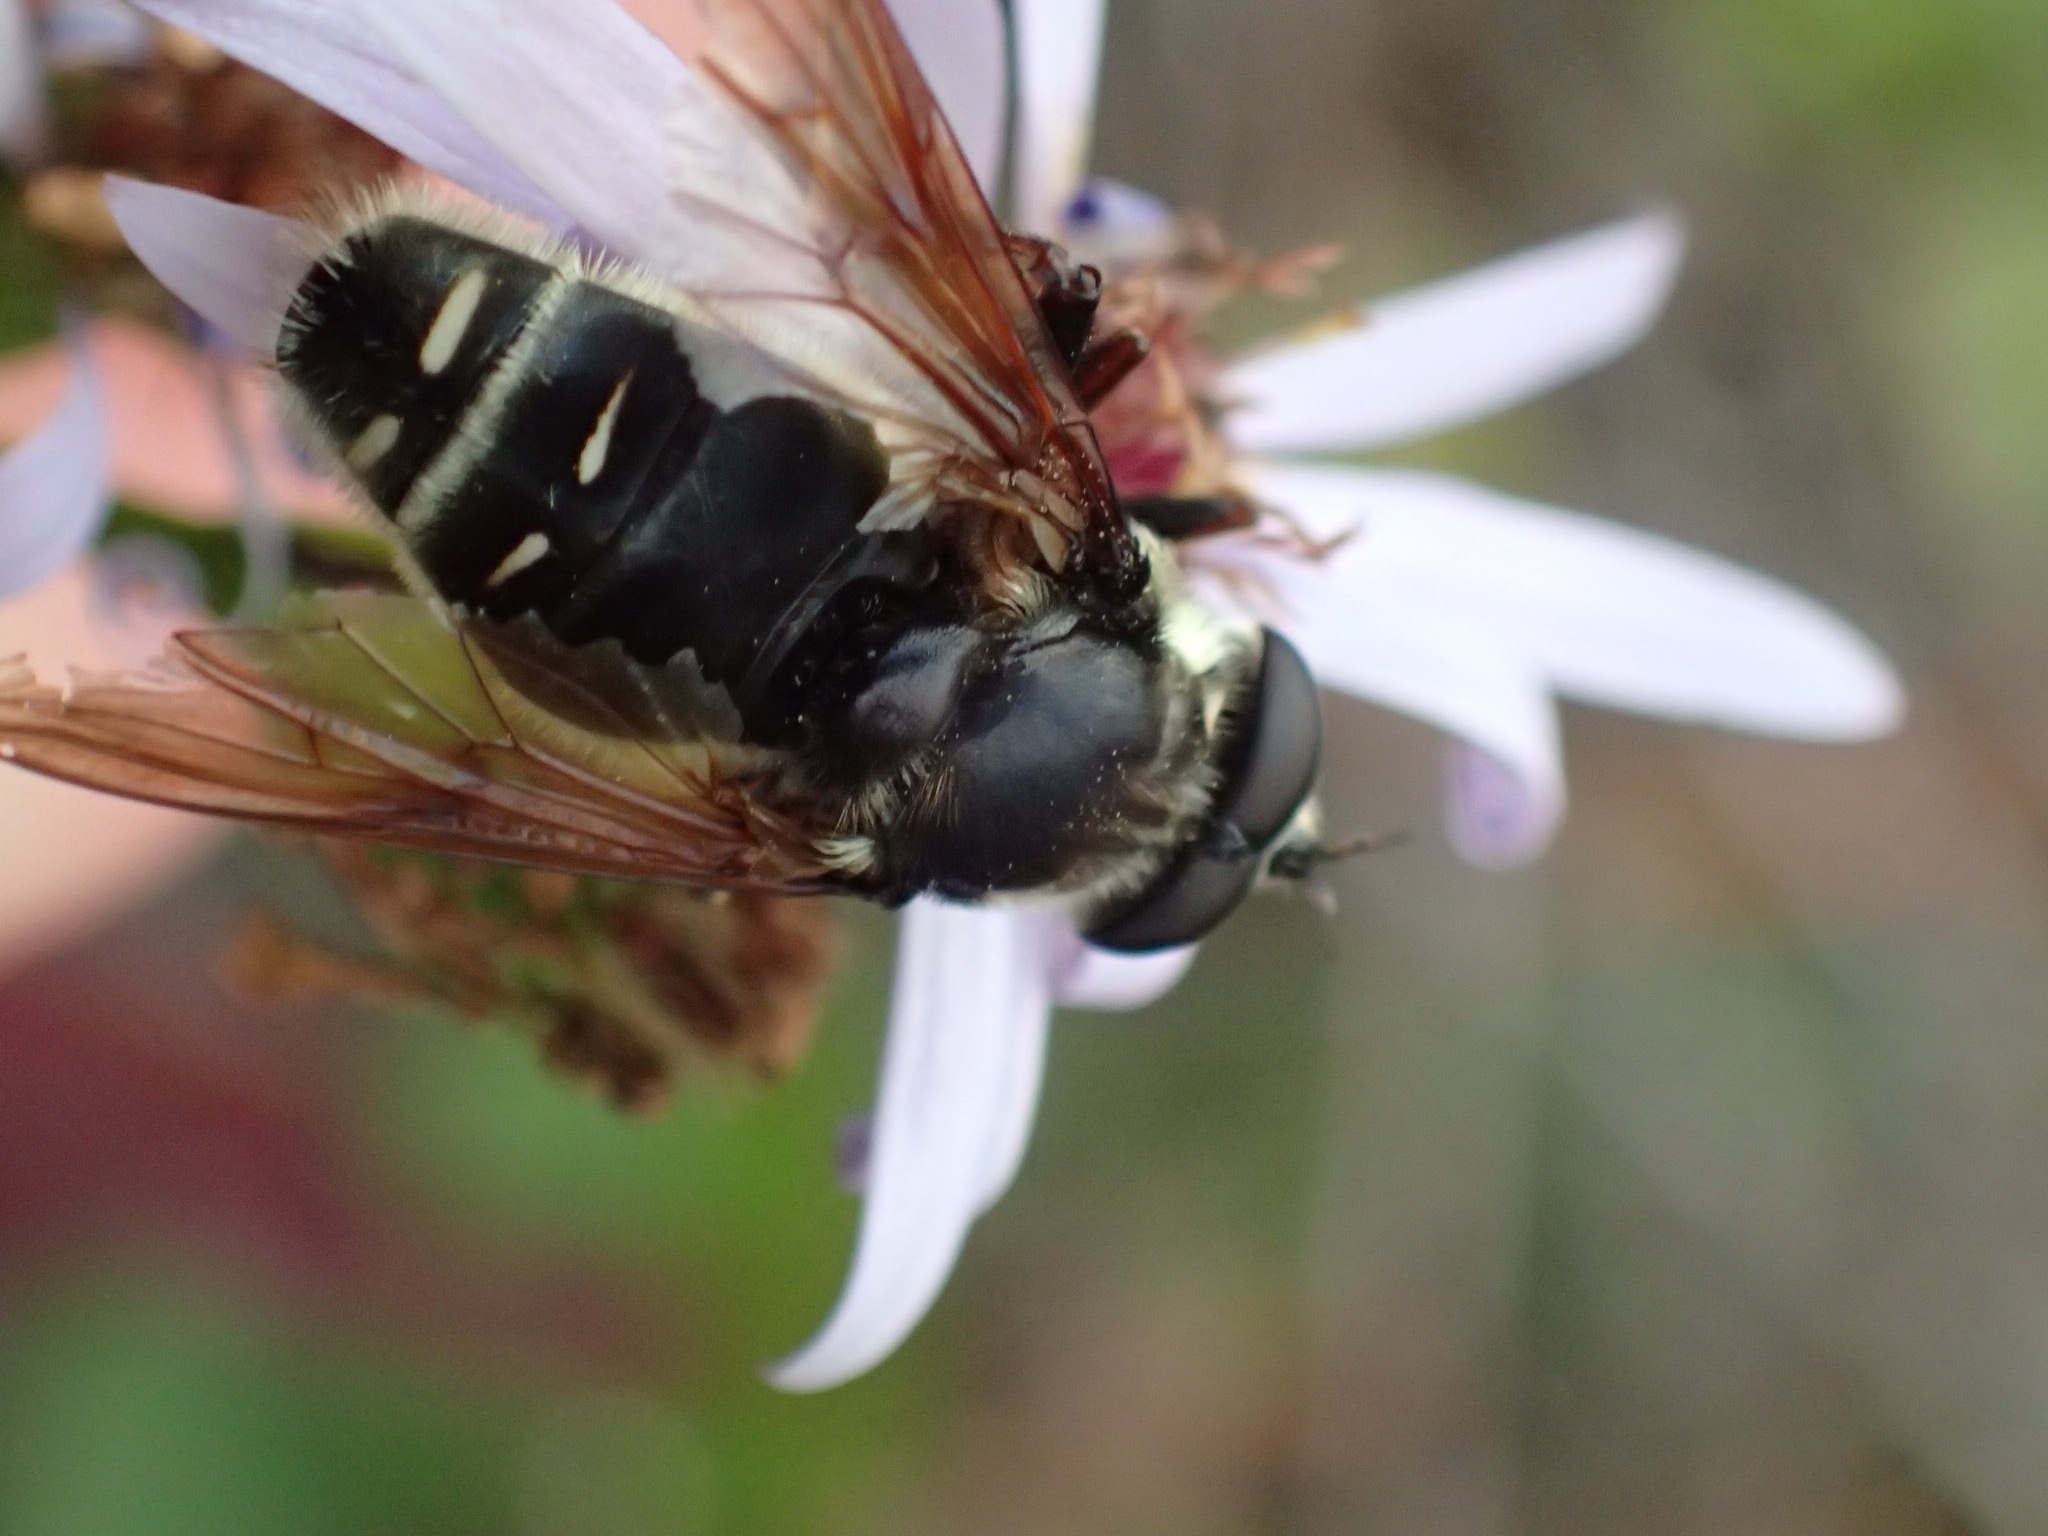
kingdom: Animalia
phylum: Arthropoda
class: Insecta
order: Diptera
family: Syrphidae
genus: Sericomyia
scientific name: Sericomyia militaris
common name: Narrow-banded pond fly
